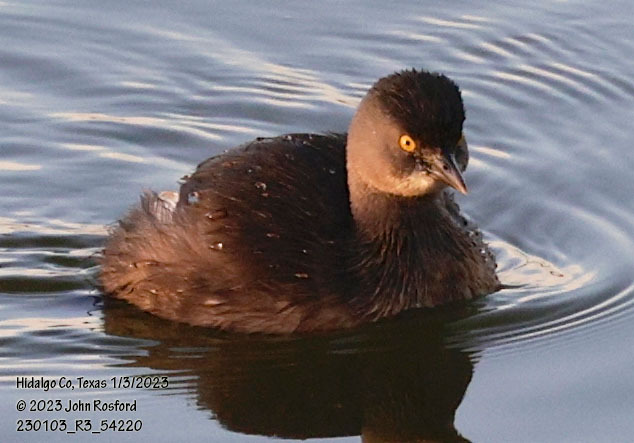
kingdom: Animalia
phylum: Chordata
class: Aves
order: Podicipediformes
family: Podicipedidae
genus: Tachybaptus
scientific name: Tachybaptus dominicus
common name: Least grebe
